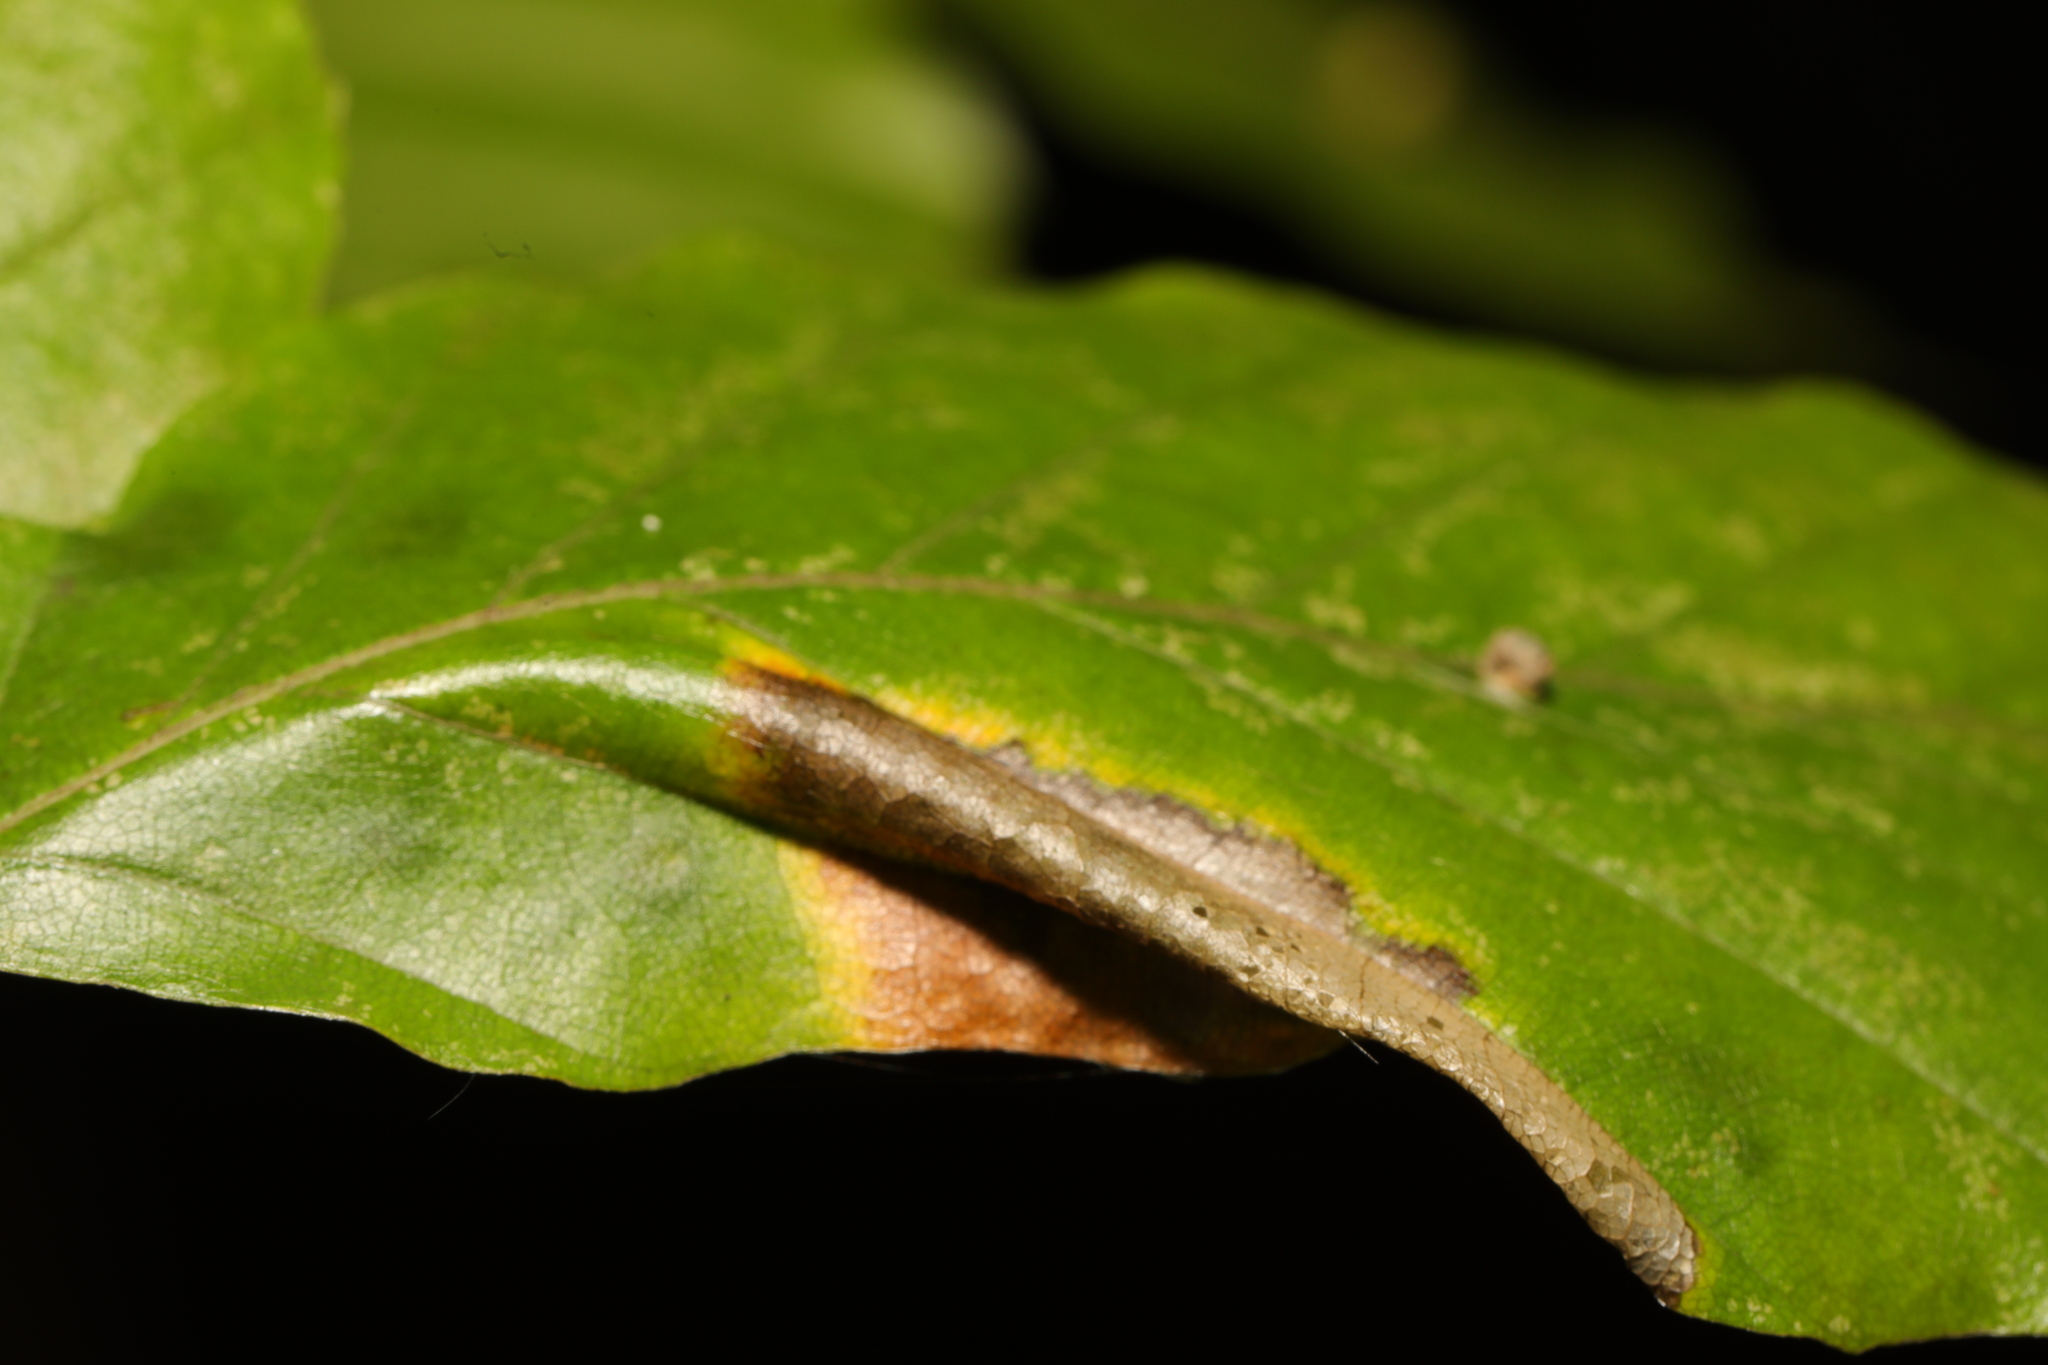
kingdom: Animalia
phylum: Arthropoda
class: Insecta
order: Lepidoptera
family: Gracillariidae
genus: Phyllonorycter
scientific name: Phyllonorycter maestingella
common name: Beech midget
